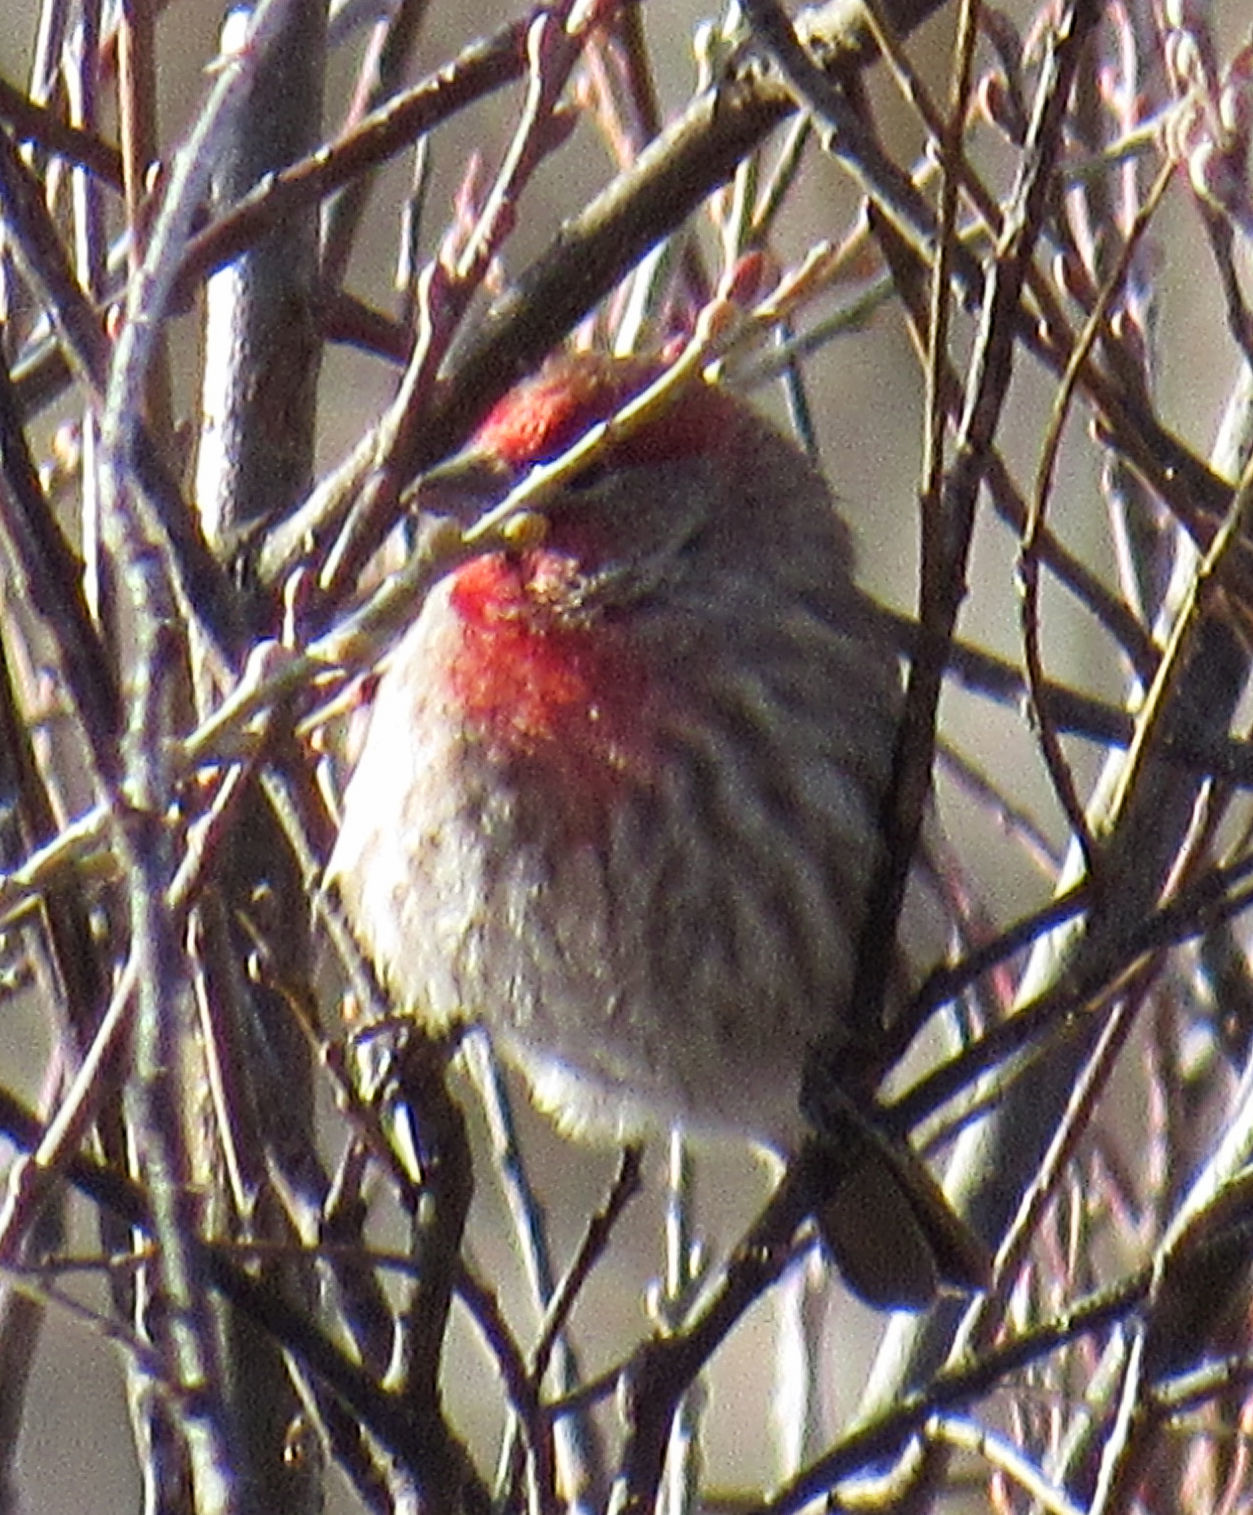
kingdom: Animalia
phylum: Chordata
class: Aves
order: Passeriformes
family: Fringillidae
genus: Haemorhous
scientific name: Haemorhous mexicanus
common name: House finch
